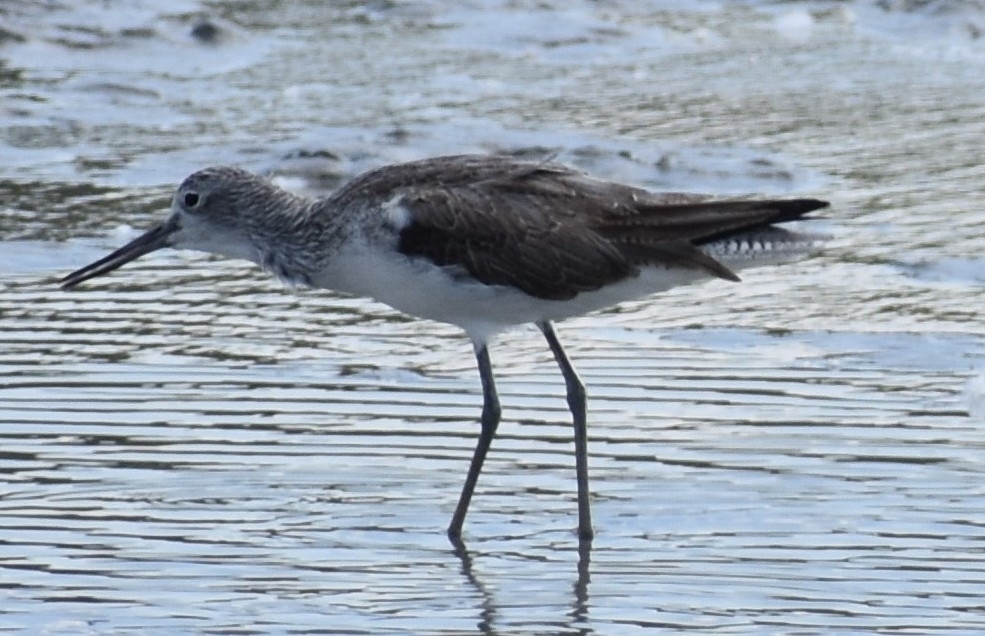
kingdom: Animalia
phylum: Chordata
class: Aves
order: Charadriiformes
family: Scolopacidae
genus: Tringa
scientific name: Tringa nebularia
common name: Common greenshank
